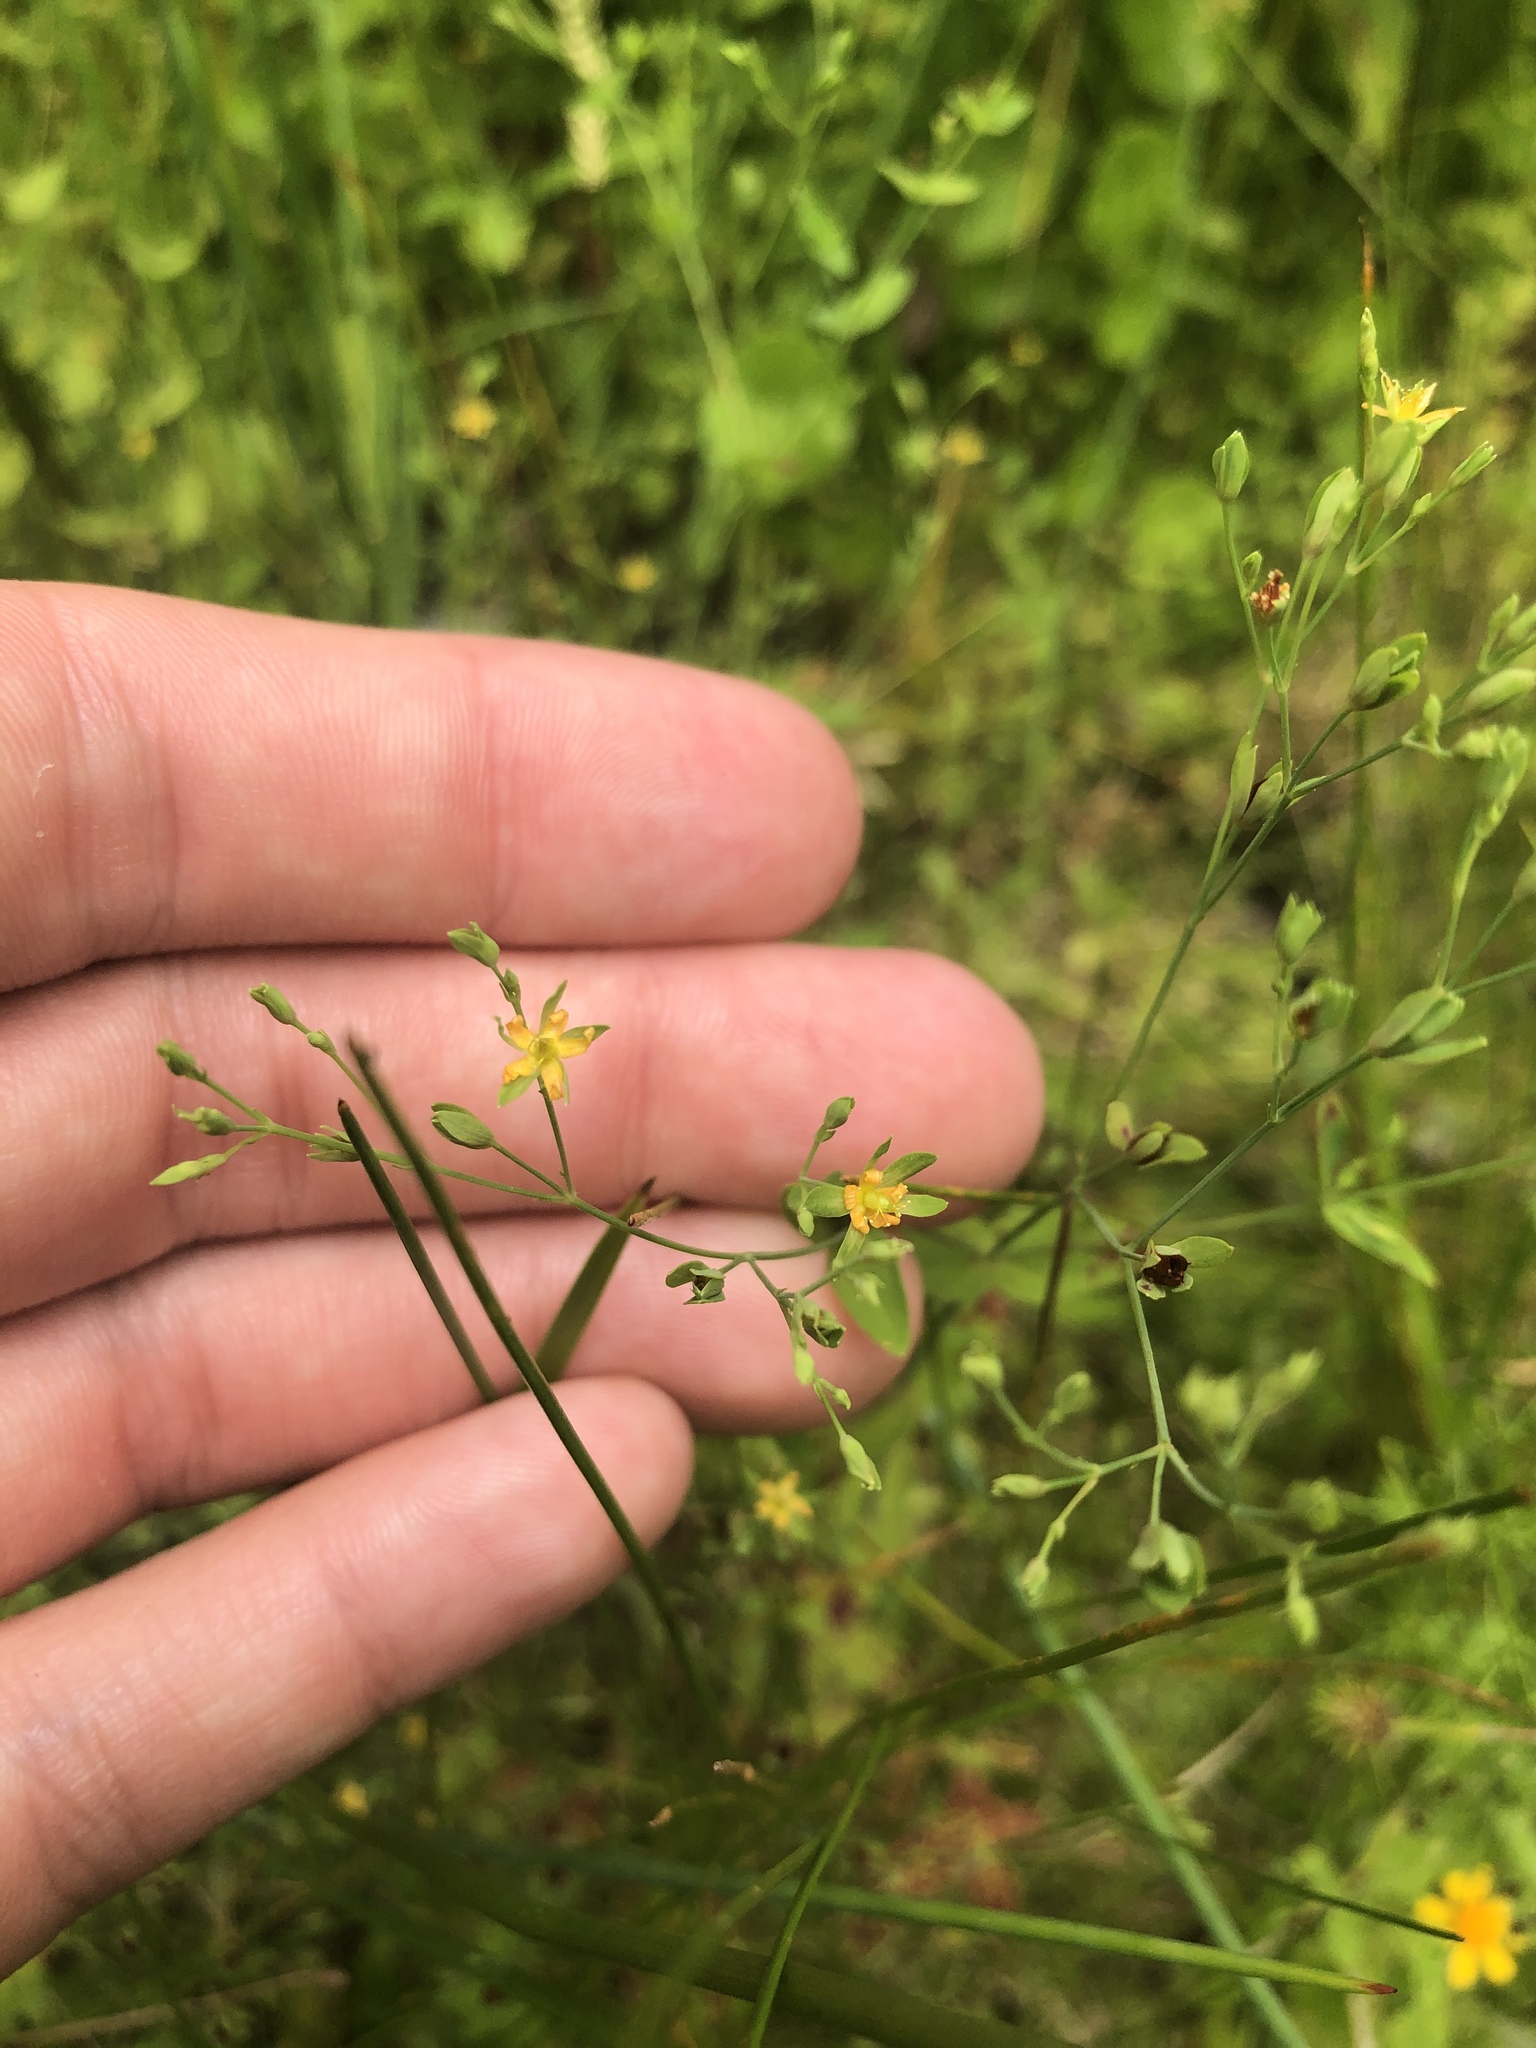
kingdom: Plantae
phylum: Tracheophyta
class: Magnoliopsida
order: Malpighiales
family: Hypericaceae
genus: Hypericum
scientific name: Hypericum mutilum
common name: Dwarf st. john's-wort
